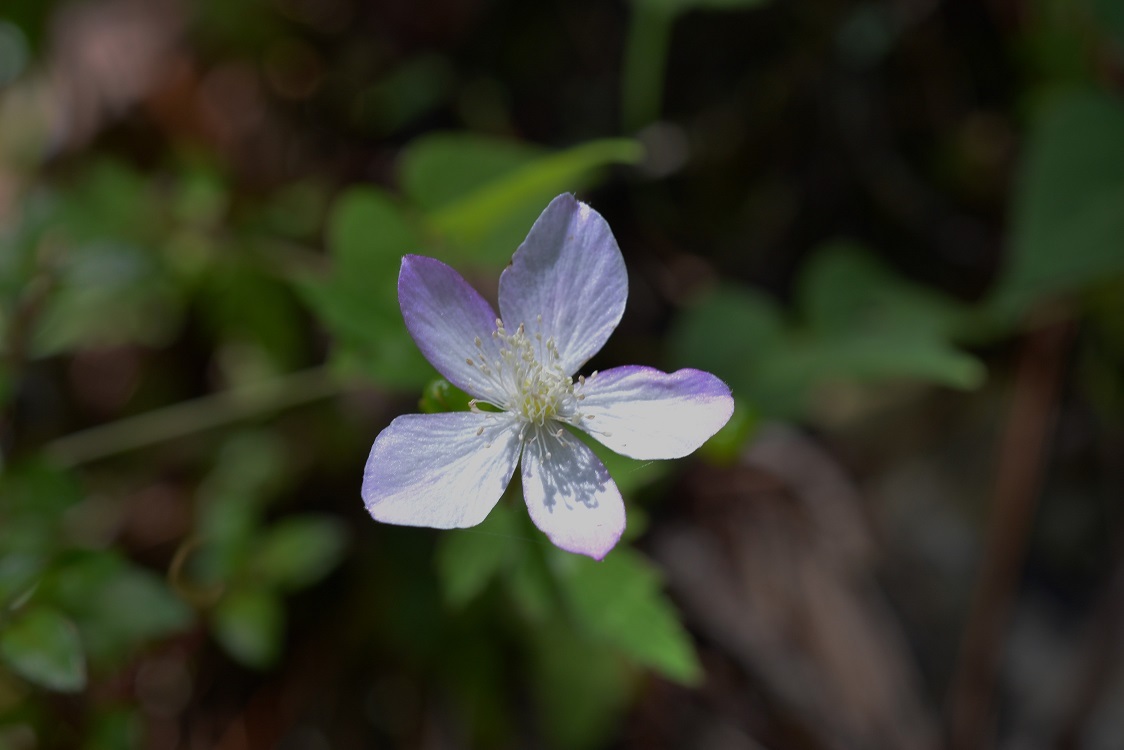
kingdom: Plantae
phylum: Tracheophyta
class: Magnoliopsida
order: Ranunculales
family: Ranunculaceae
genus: Knowltonia
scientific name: Knowltonia mexicana
